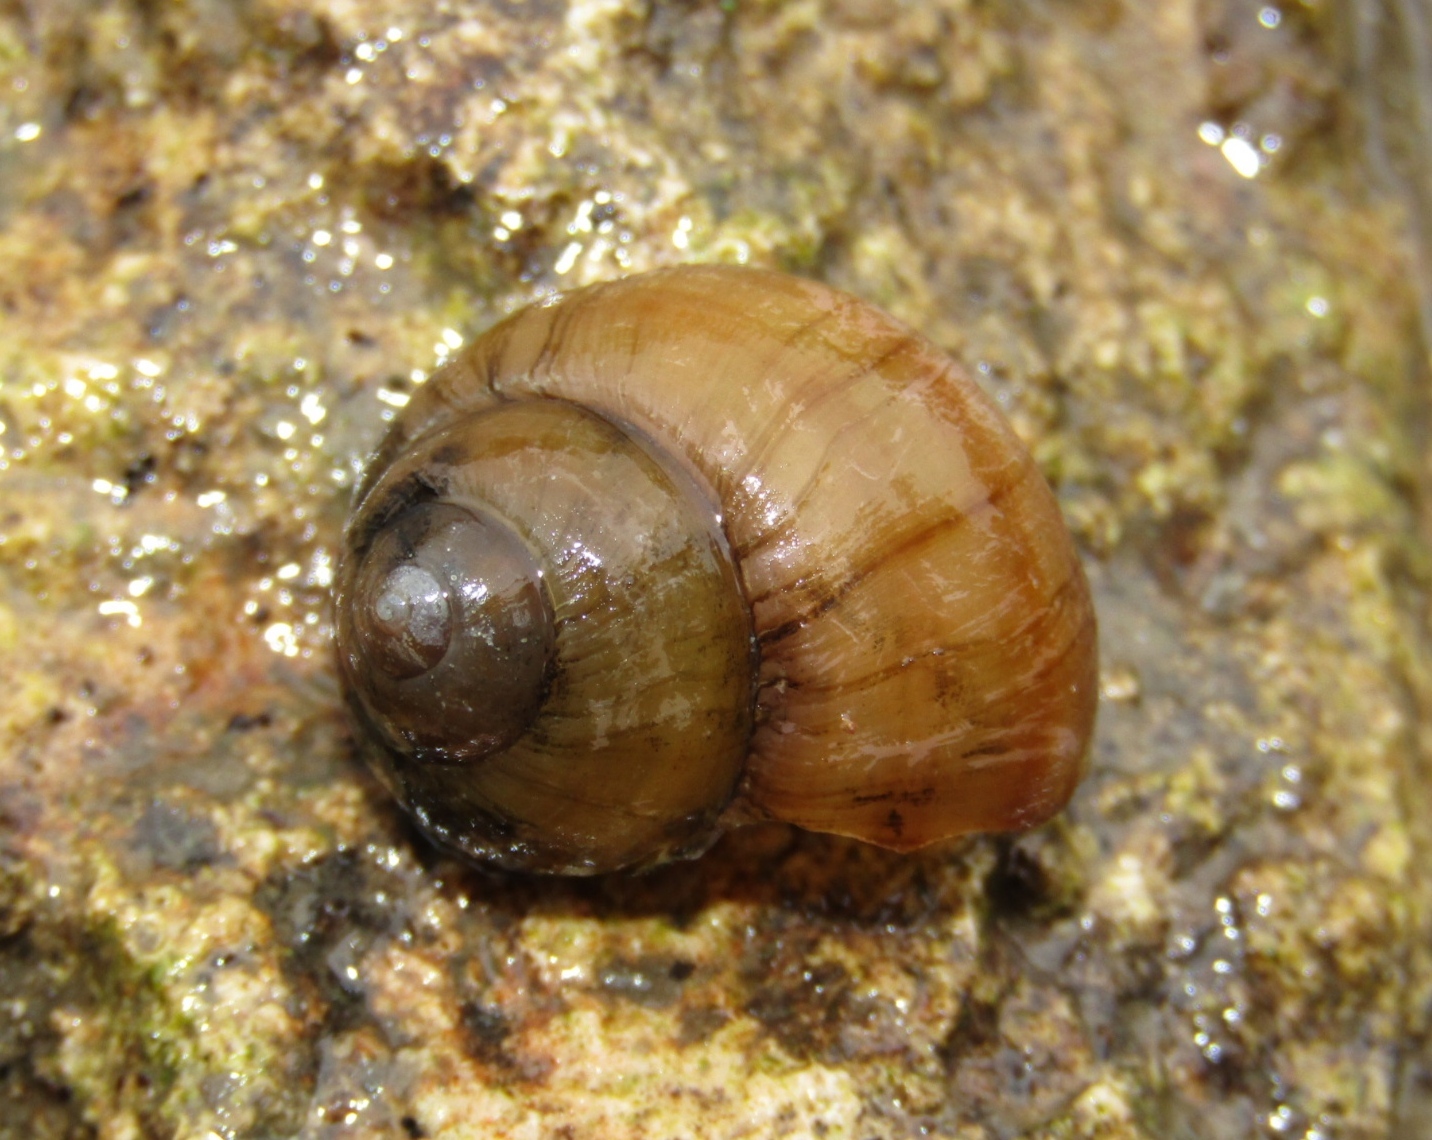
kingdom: Animalia
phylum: Mollusca
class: Gastropoda
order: Architaenioglossa
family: Viviparidae
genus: Viviparus
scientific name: Viviparus viviparus
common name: River snail
